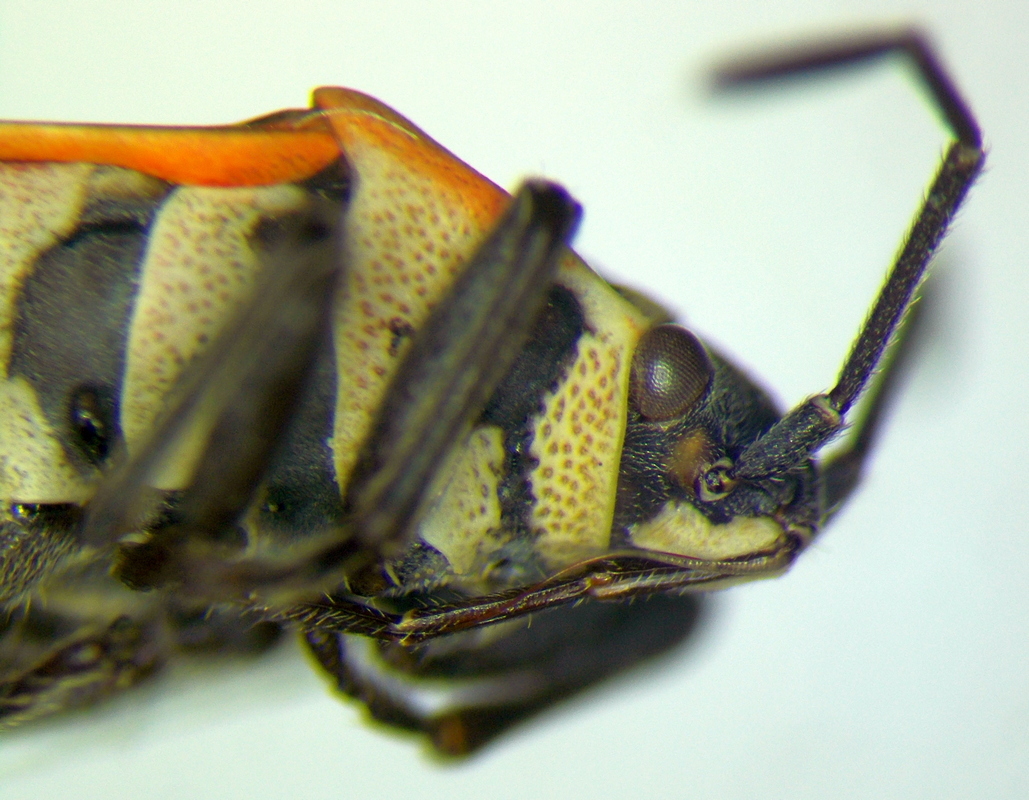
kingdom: Animalia
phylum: Arthropoda
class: Insecta
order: Hemiptera
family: Lygaeidae
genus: Neacoryphus
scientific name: Neacoryphus bicrucis
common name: Lygaeid bug
